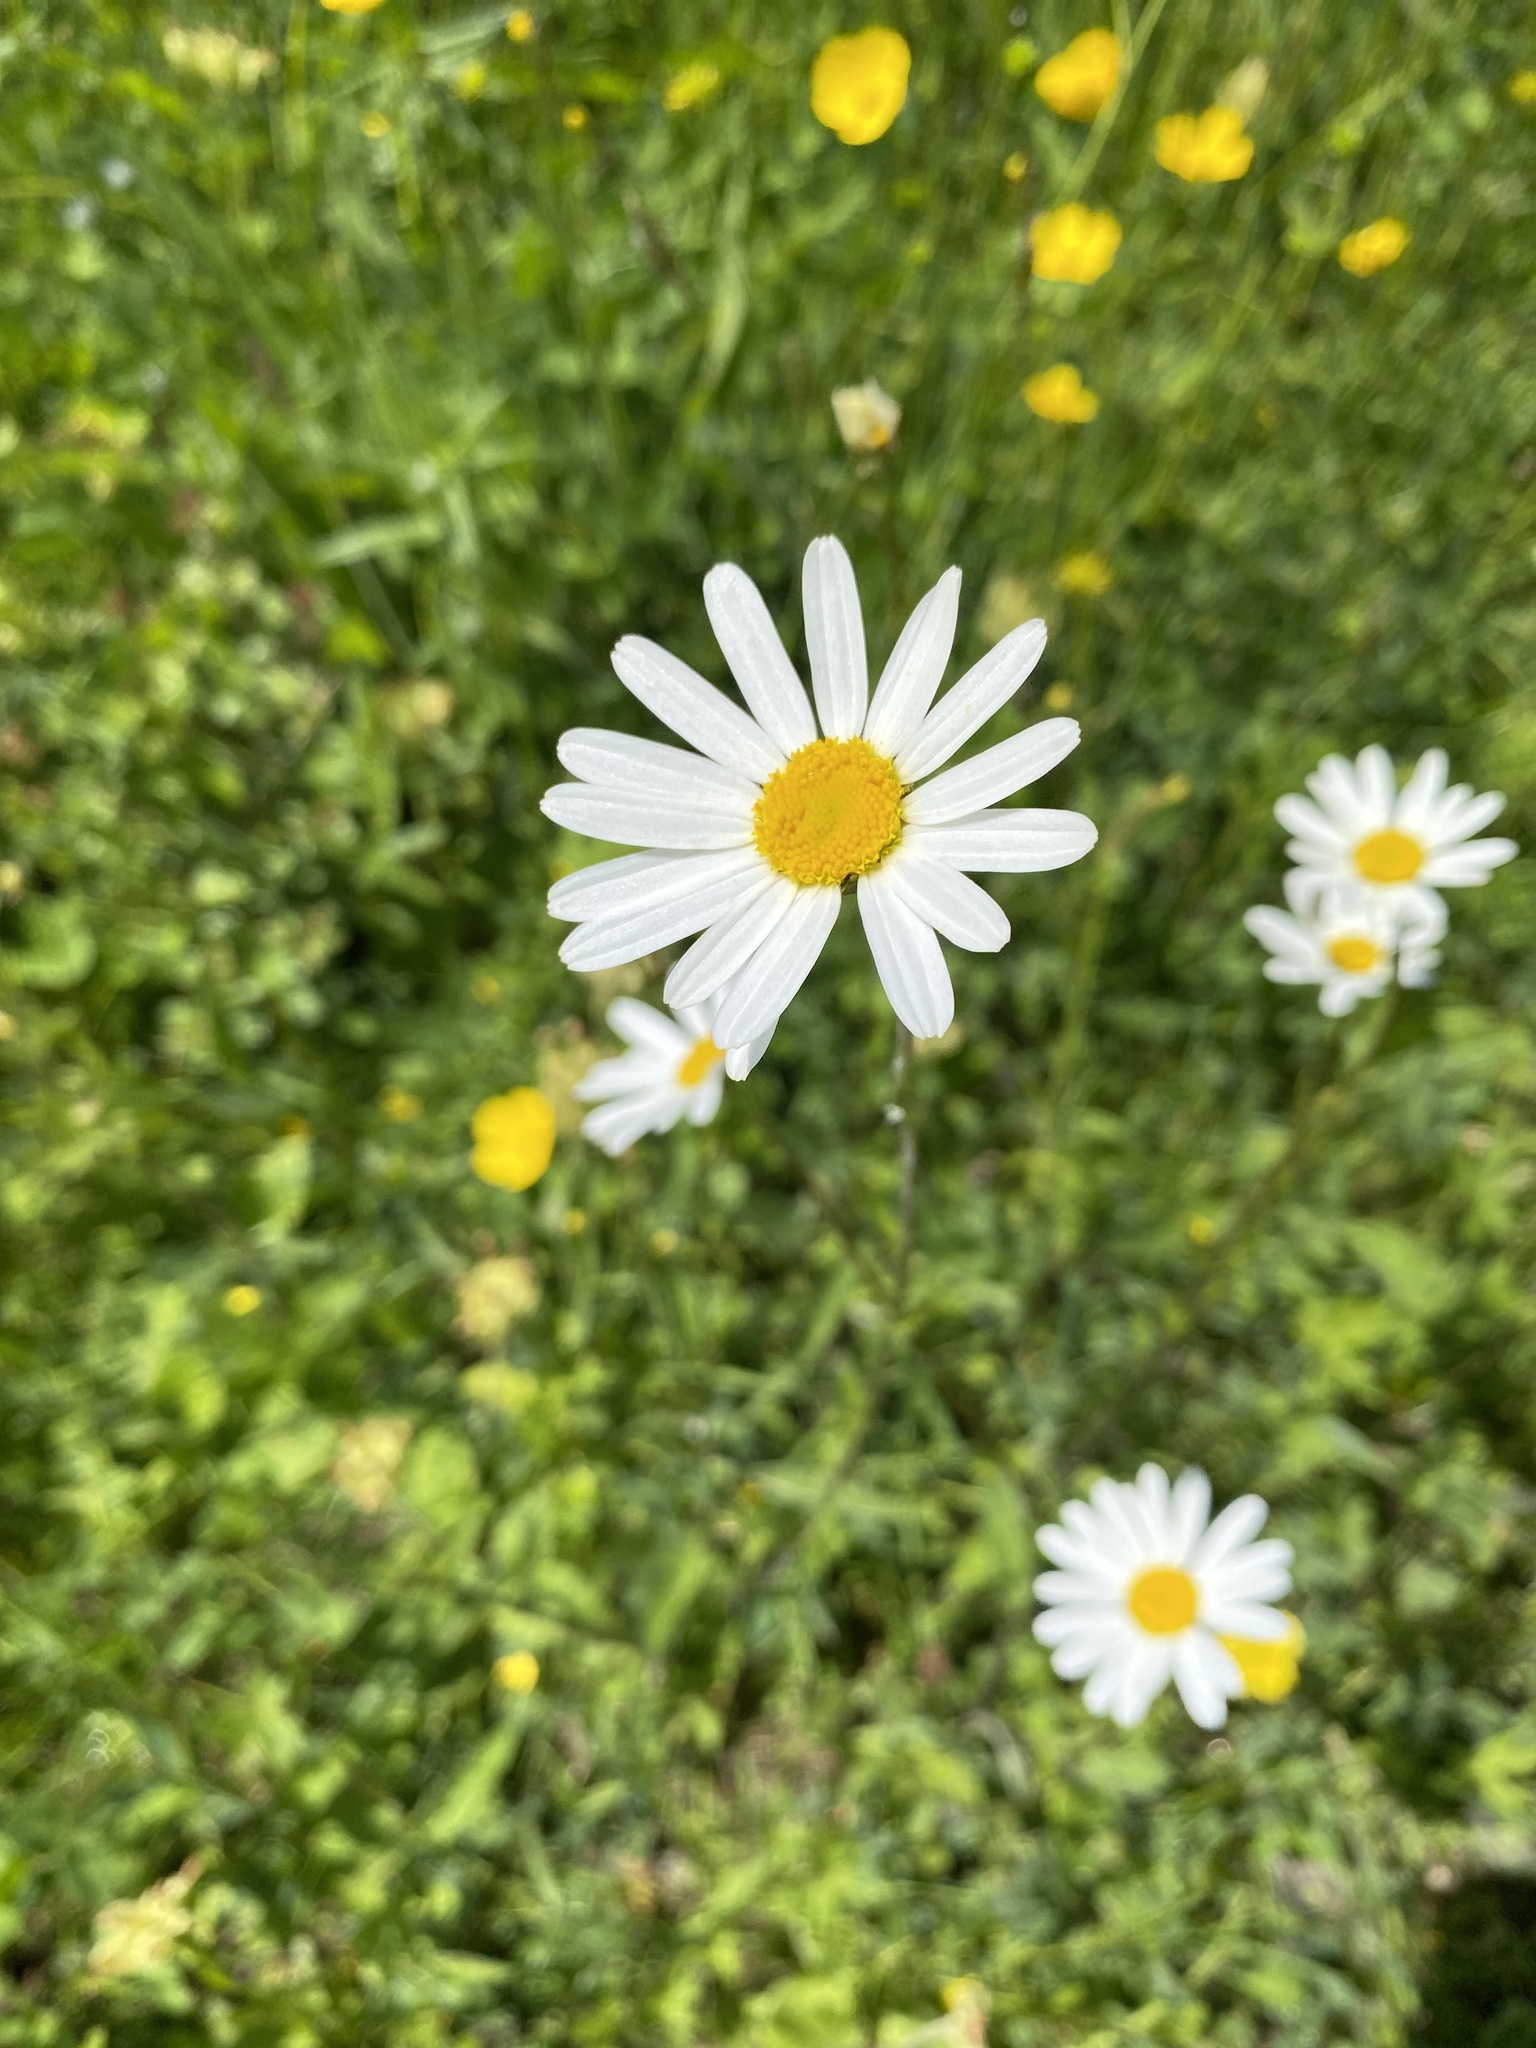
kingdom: Plantae
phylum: Tracheophyta
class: Magnoliopsida
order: Asterales
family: Asteraceae
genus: Leucanthemum
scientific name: Leucanthemum vulgare
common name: Oxeye daisy
